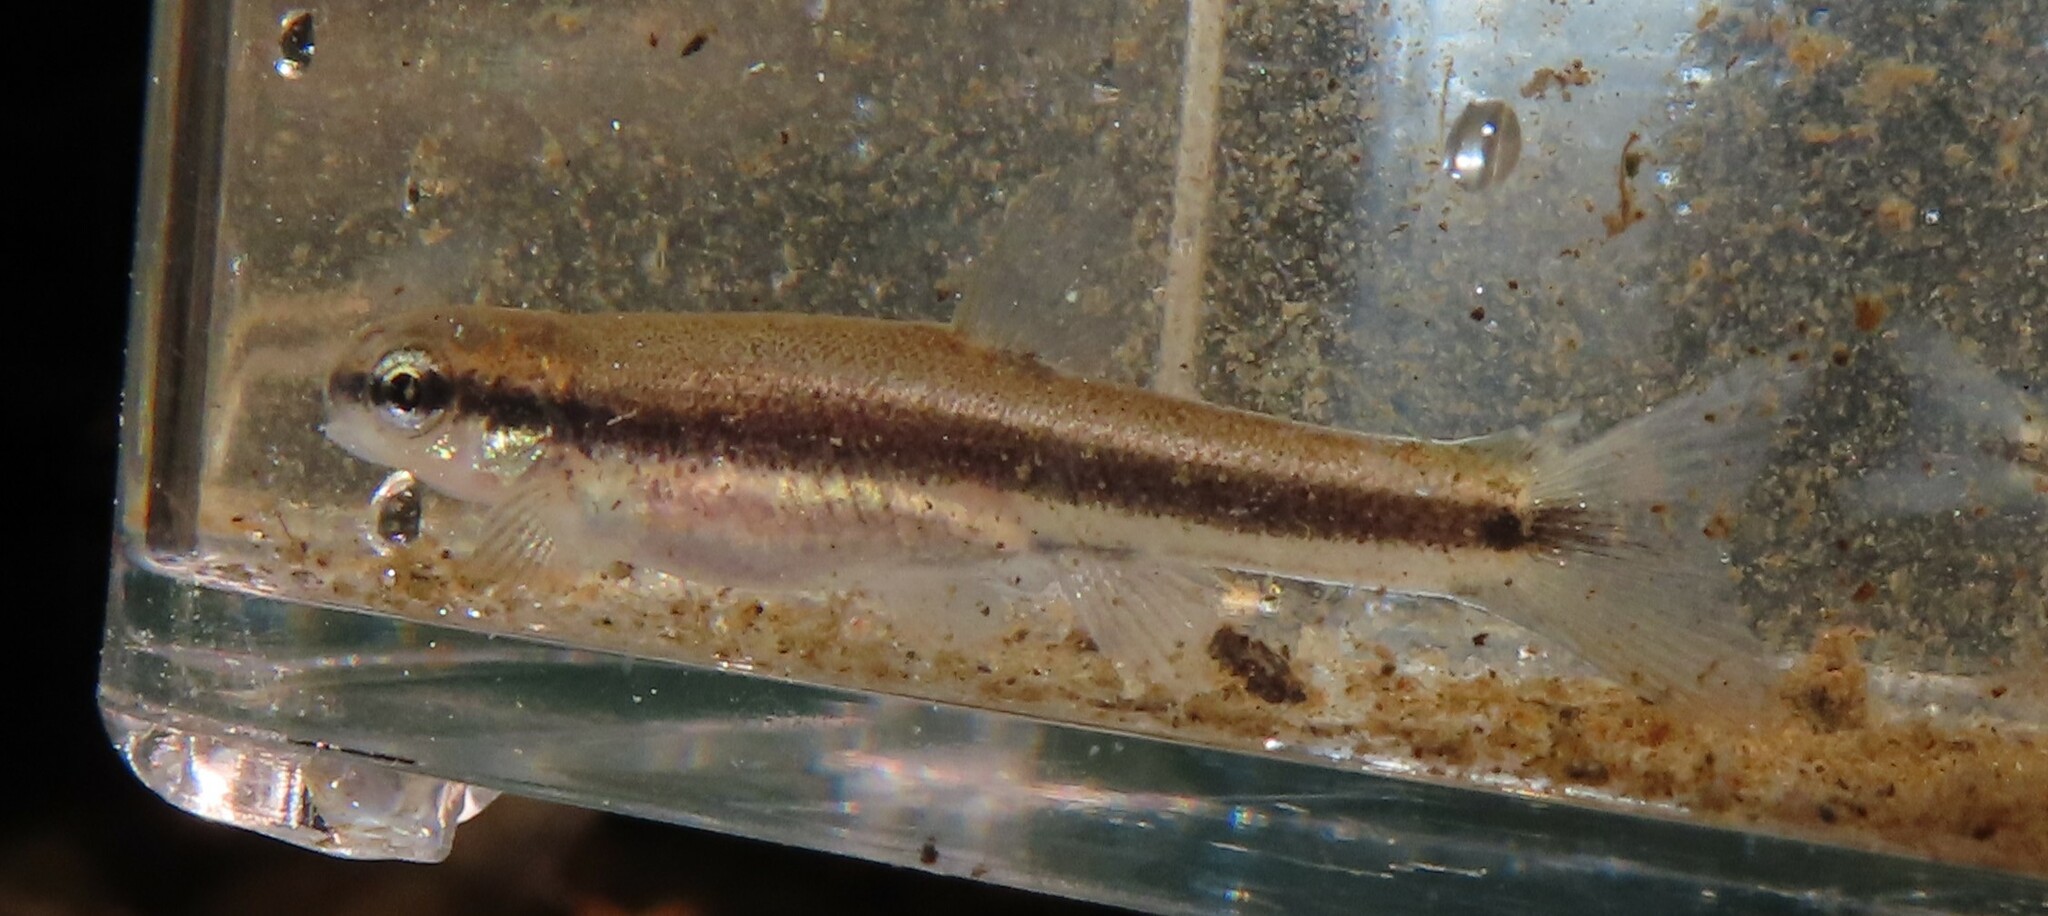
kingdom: Animalia
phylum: Chordata
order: Cypriniformes
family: Cyprinidae
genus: Rhinichthys
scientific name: Rhinichthys atratulus
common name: Eastern blacknose dace
